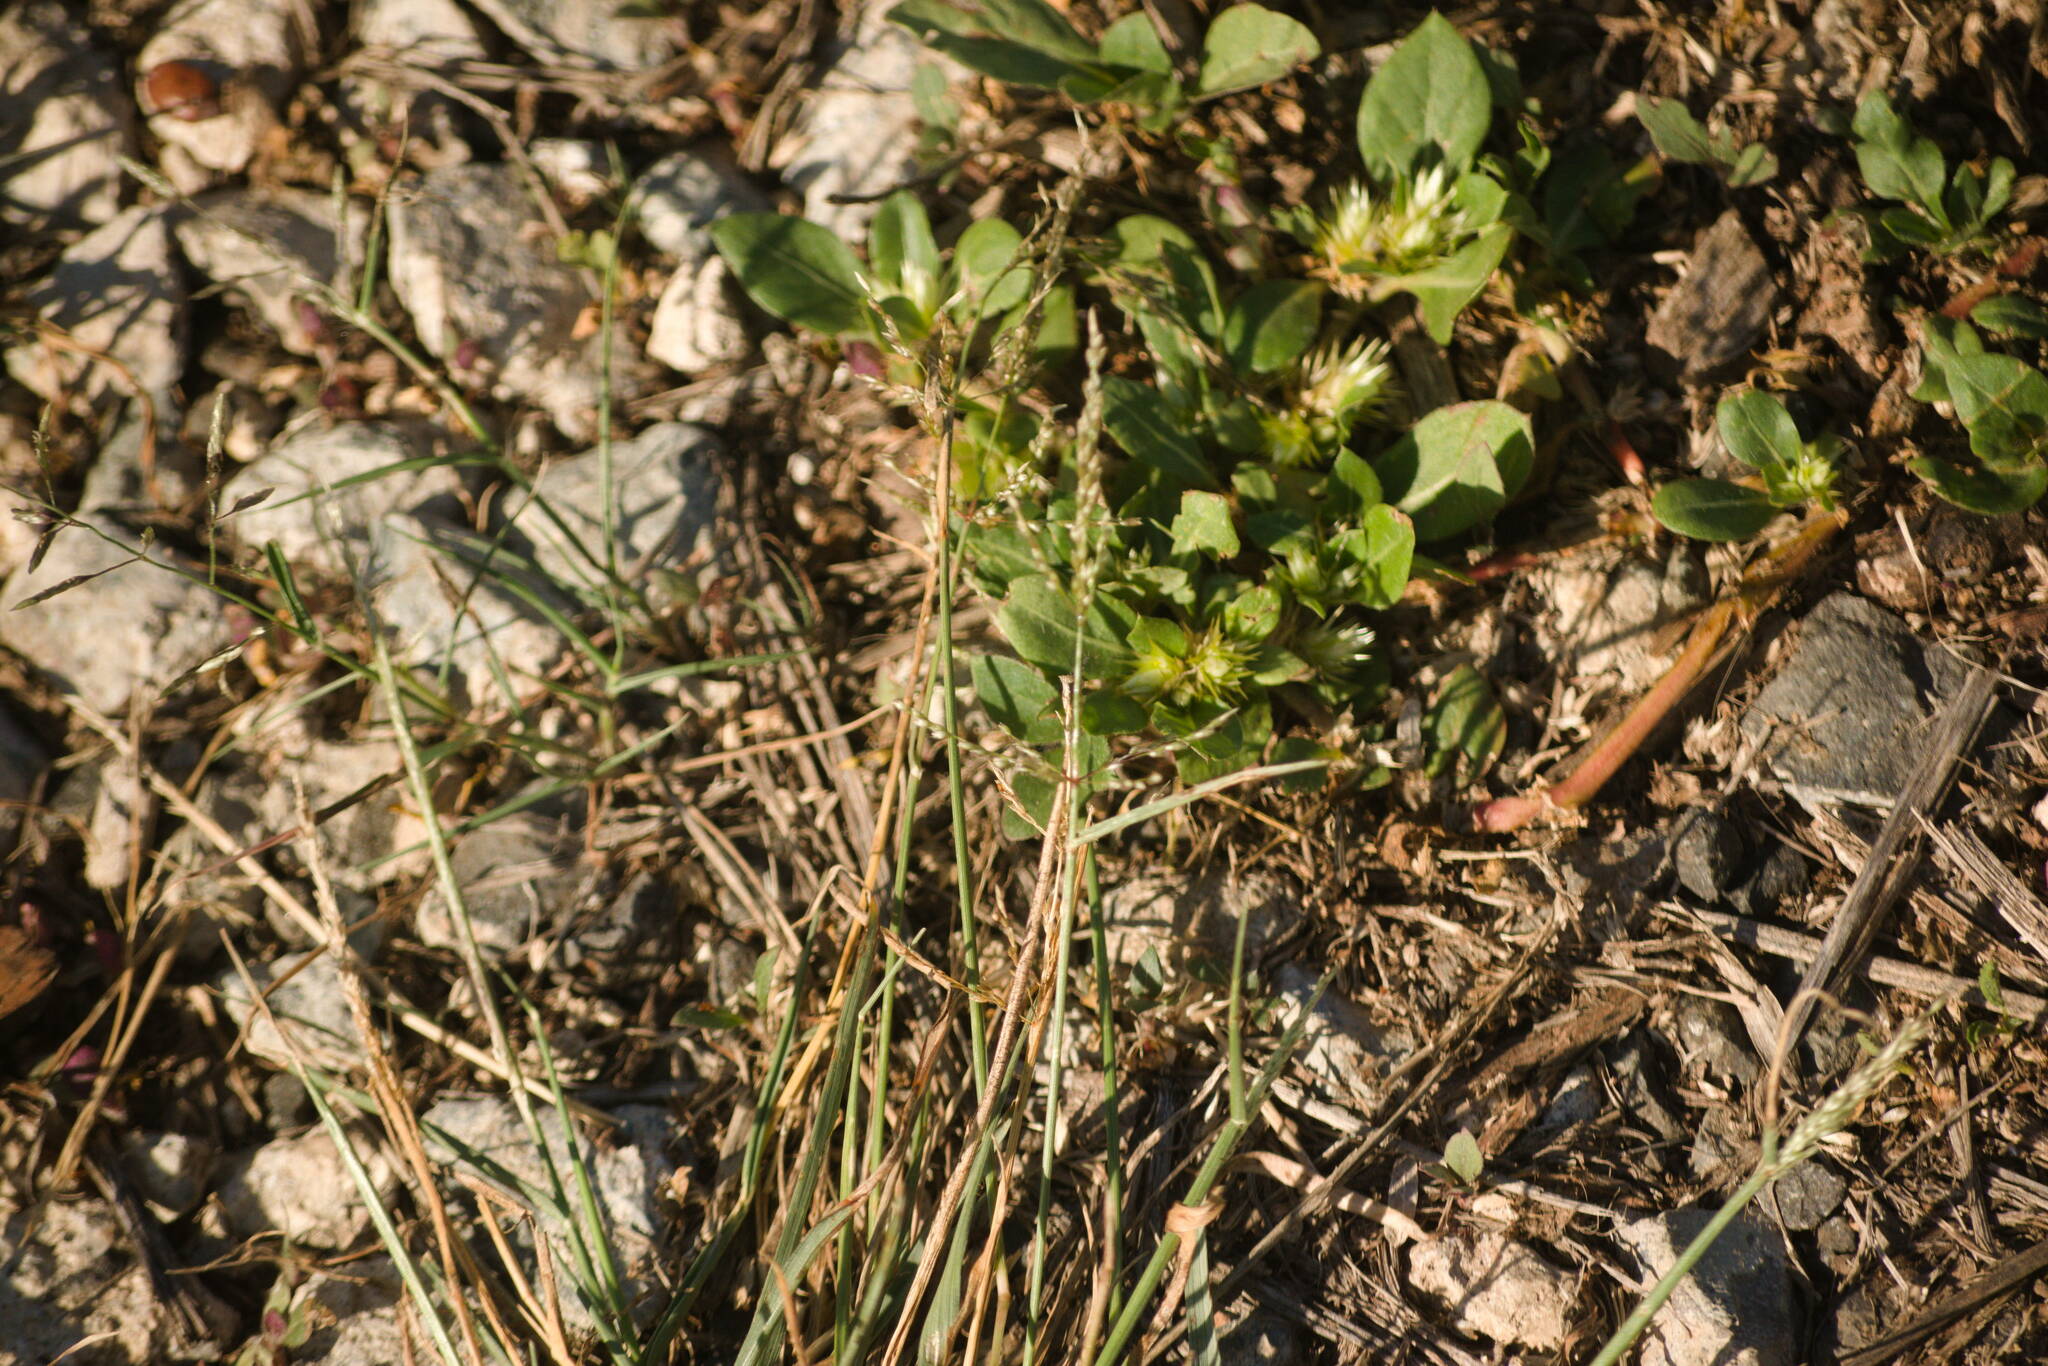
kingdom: Plantae
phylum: Tracheophyta
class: Liliopsida
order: Poales
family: Poaceae
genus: Sporobolus
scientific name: Sporobolus pyramidatus
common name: Whorled dropseed
